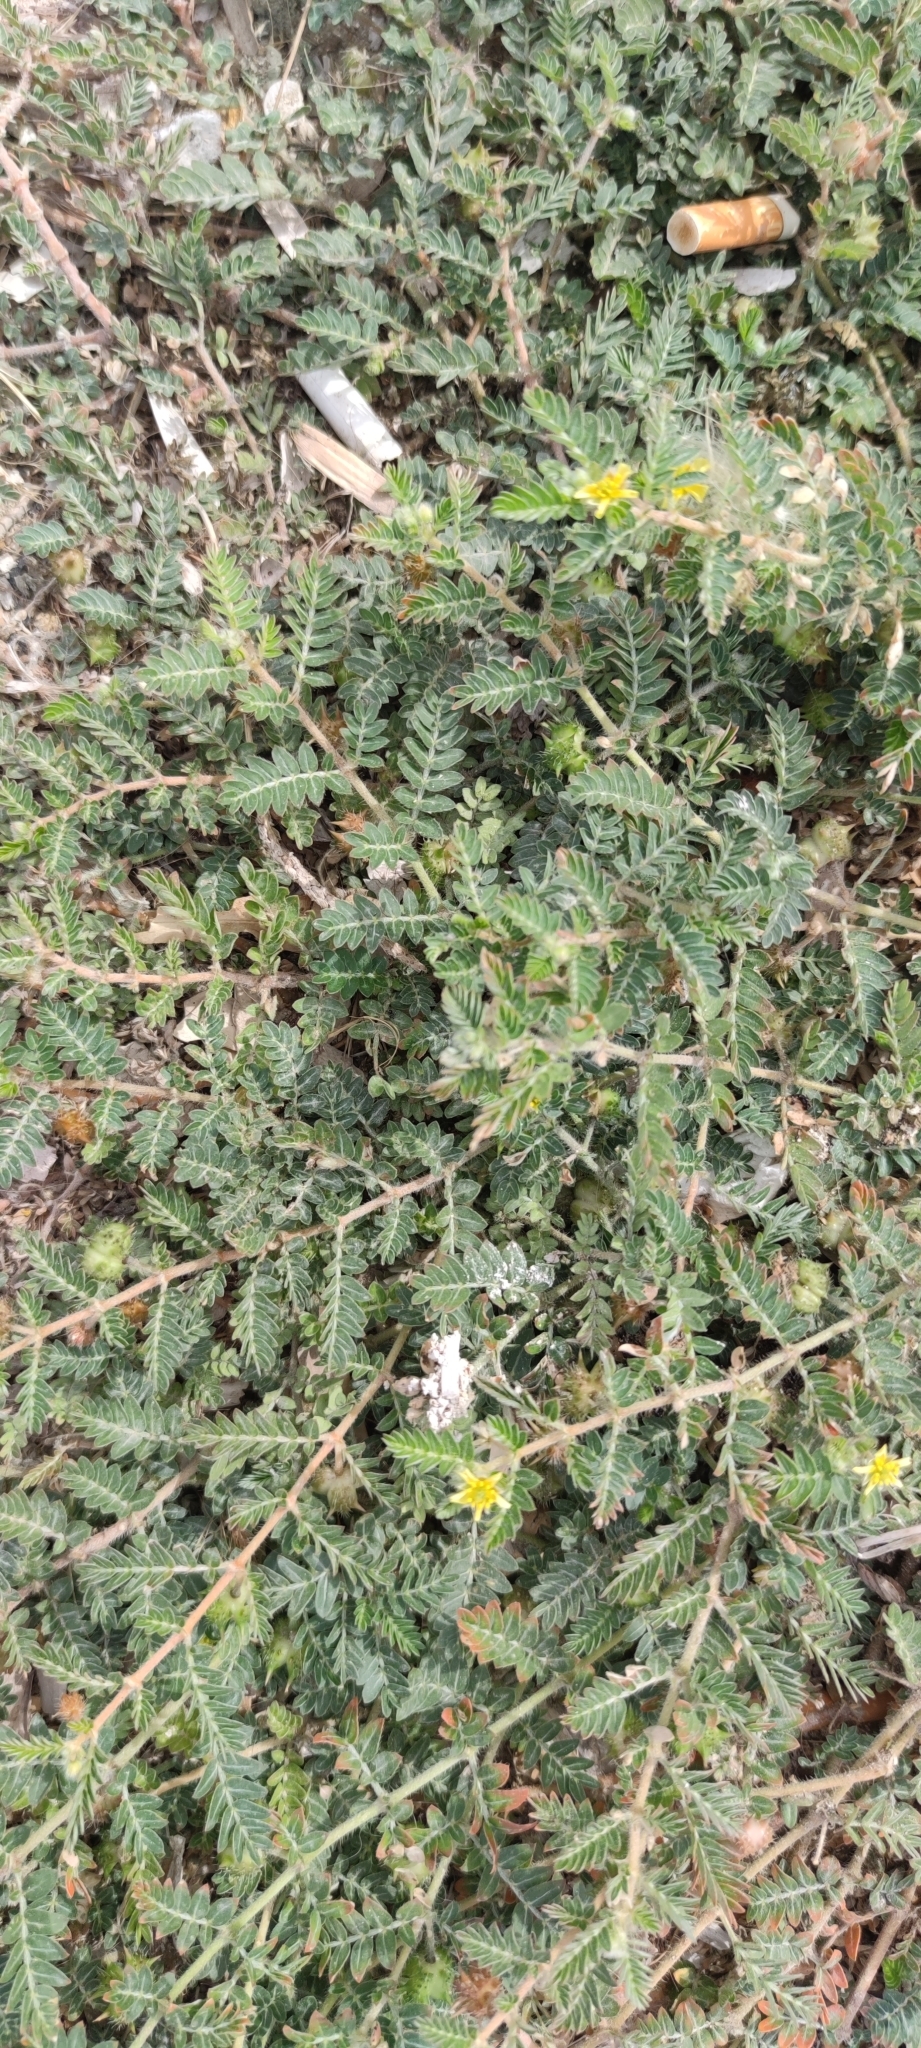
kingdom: Plantae
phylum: Tracheophyta
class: Magnoliopsida
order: Zygophyllales
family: Zygophyllaceae
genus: Tribulus
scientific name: Tribulus terrestris
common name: Puncturevine
